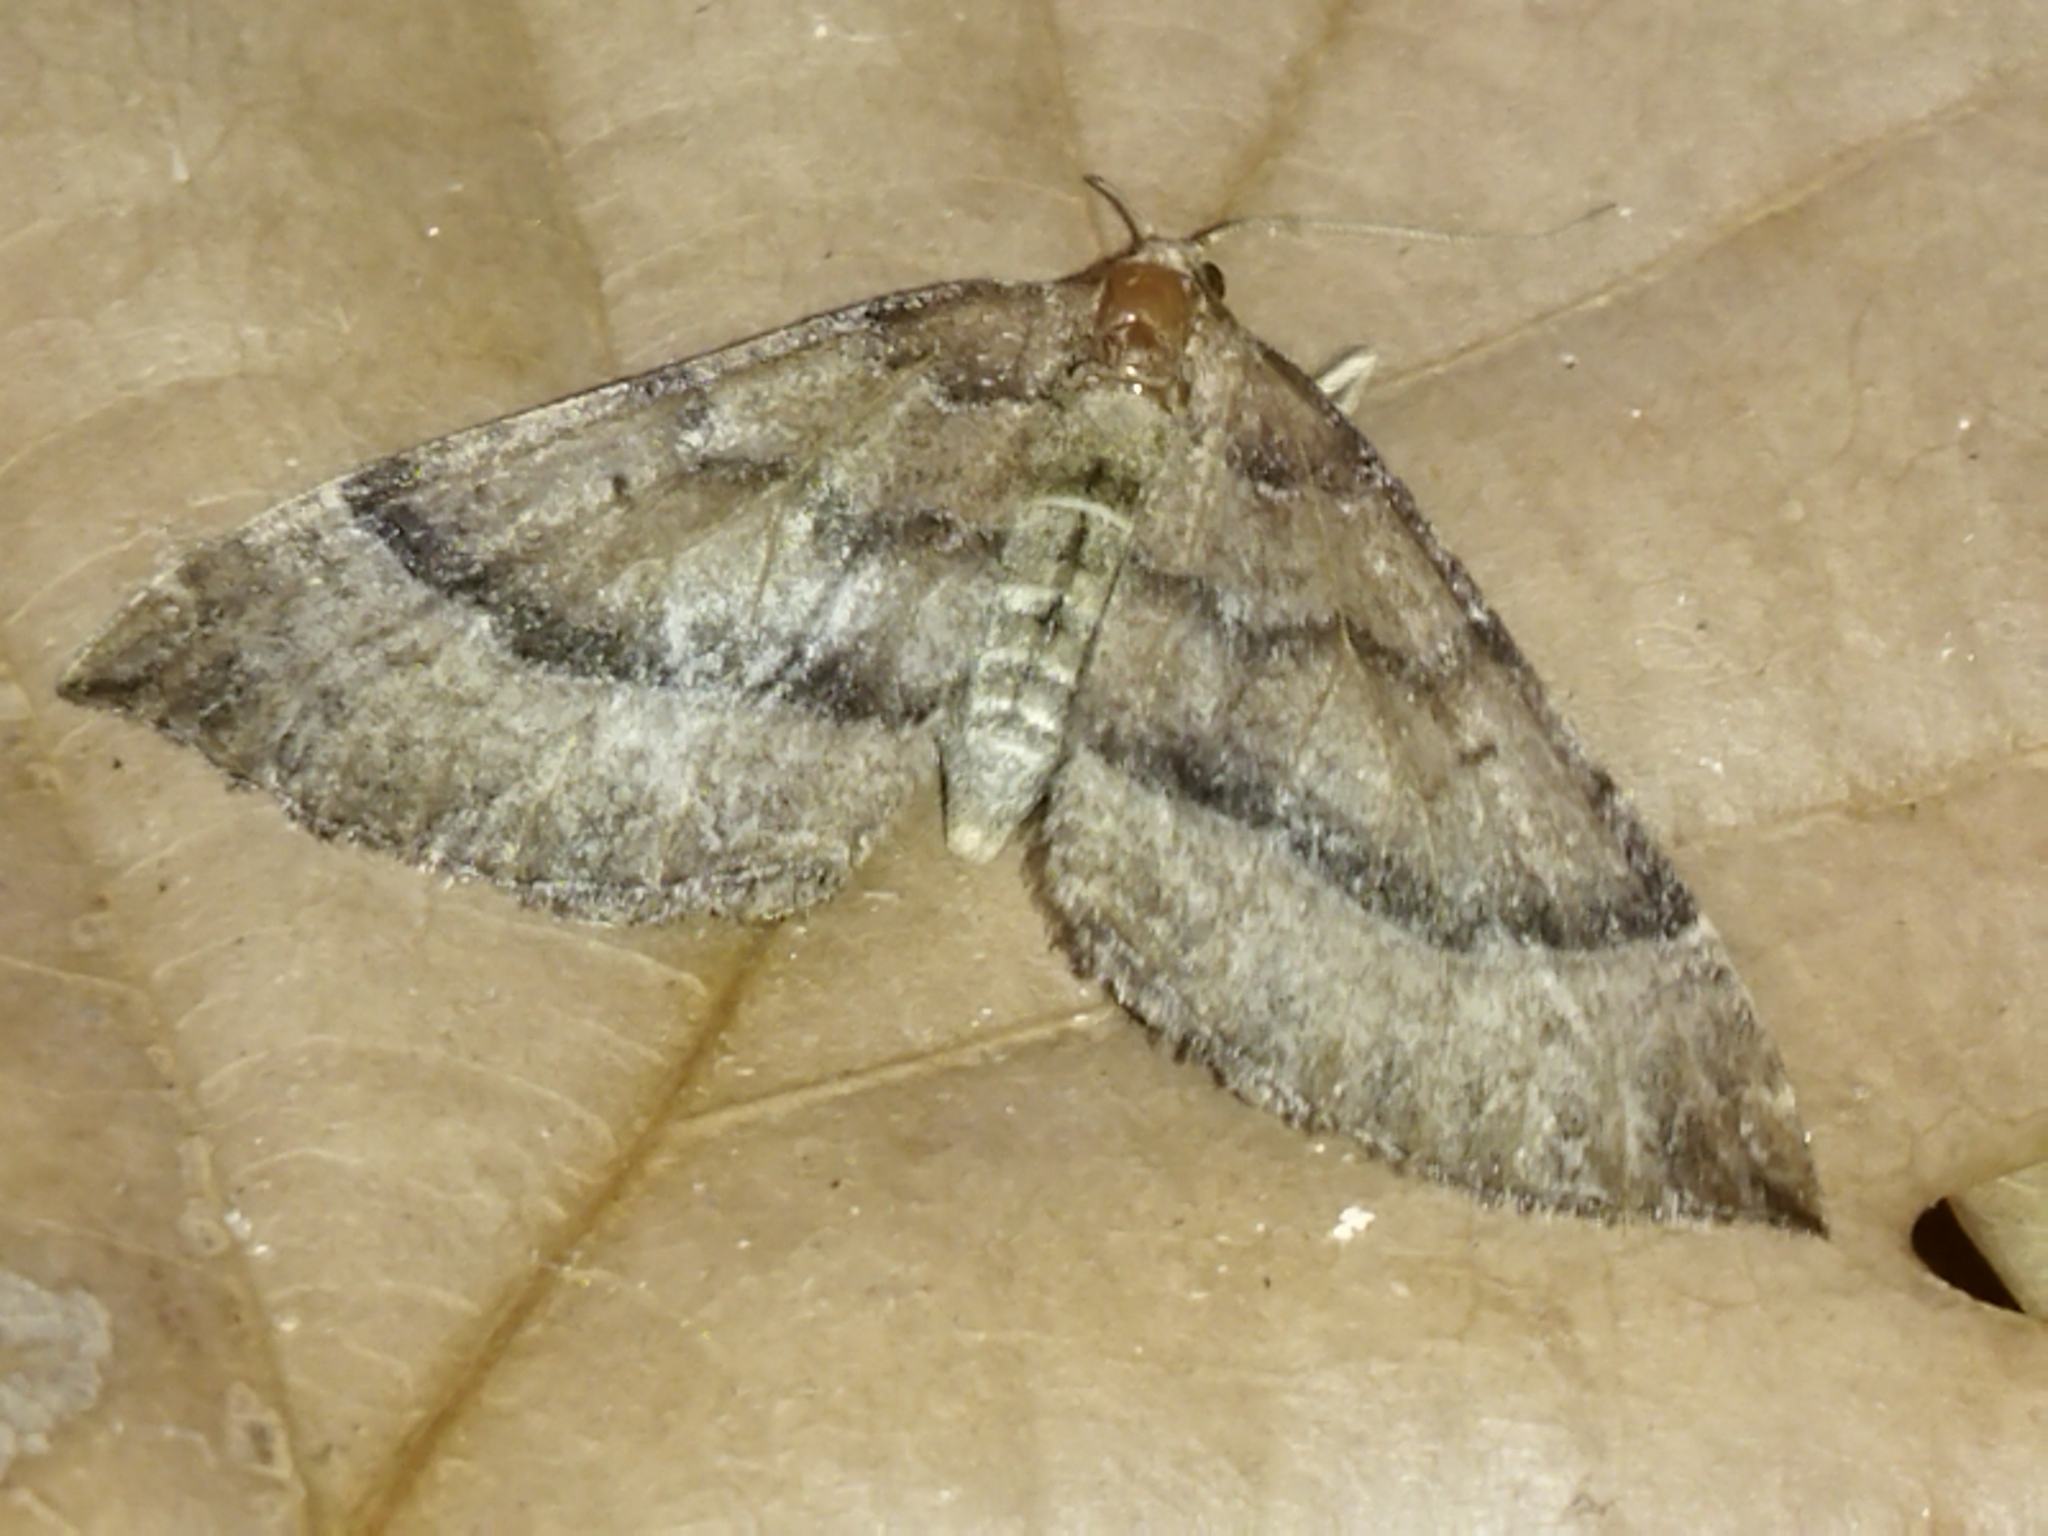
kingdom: Animalia
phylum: Arthropoda
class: Insecta
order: Lepidoptera
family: Geometridae
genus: Larentia
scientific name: Larentia clavaria
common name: Mallow
